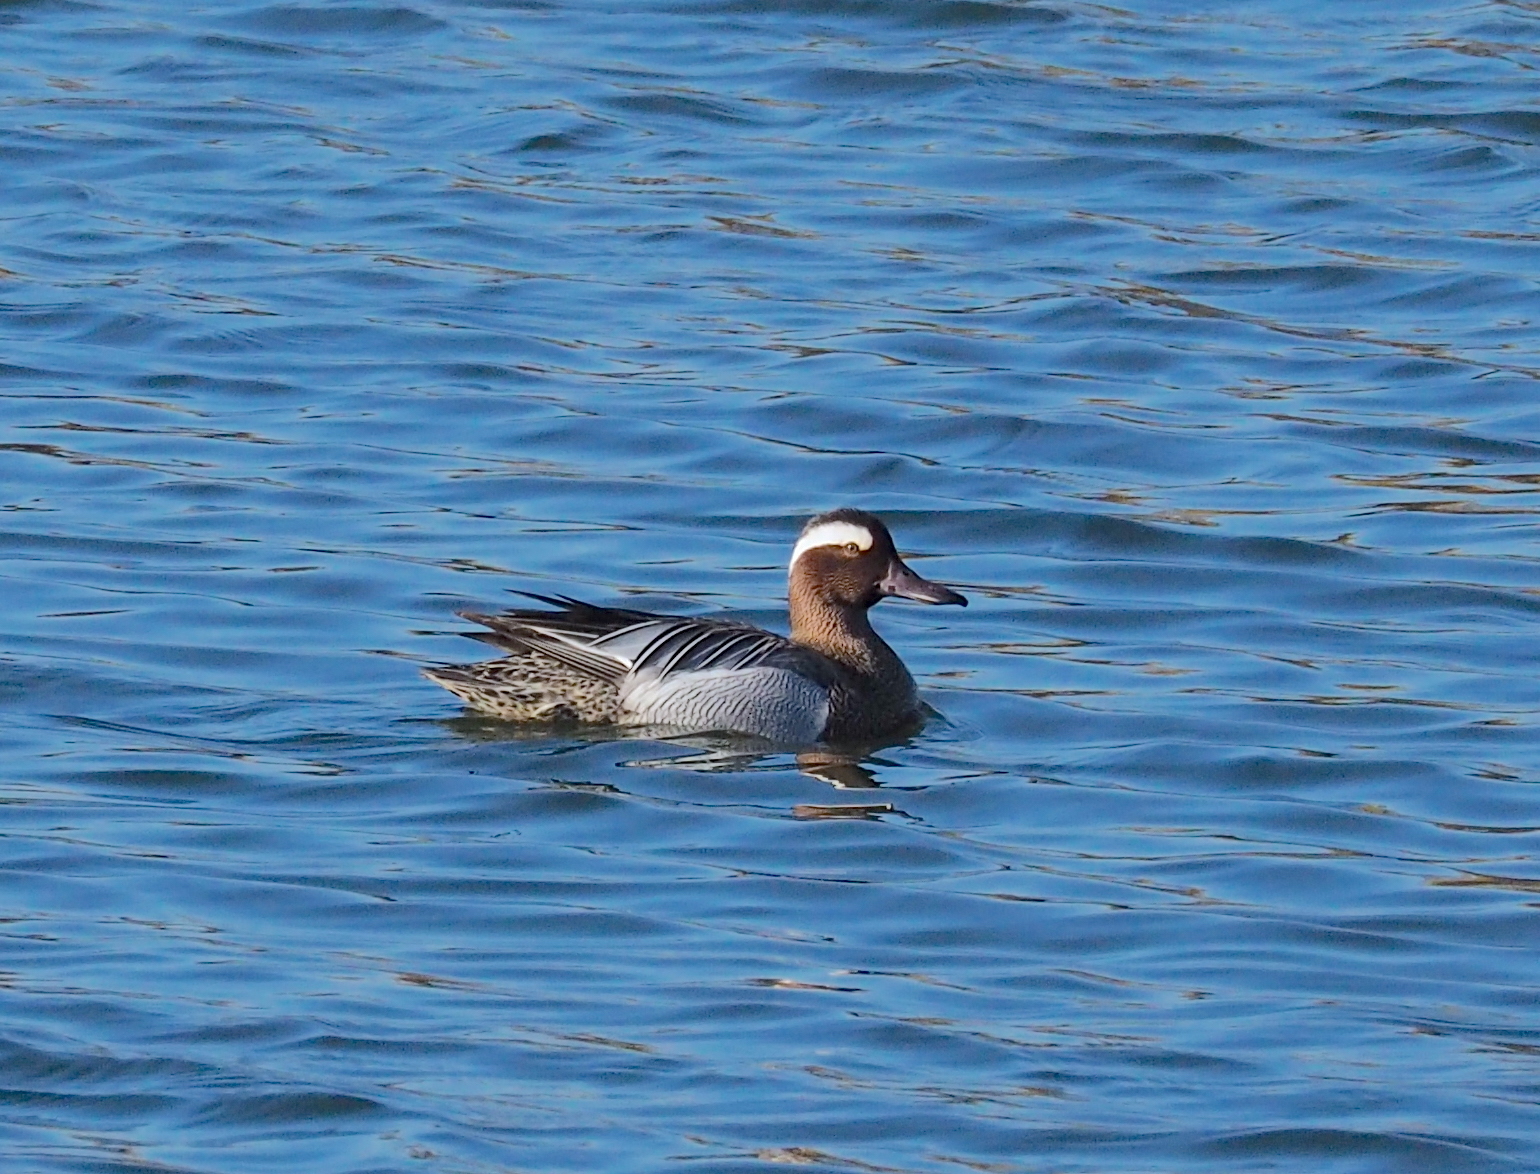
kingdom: Animalia
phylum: Chordata
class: Aves
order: Anseriformes
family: Anatidae
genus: Spatula
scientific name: Spatula querquedula
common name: Garganey
